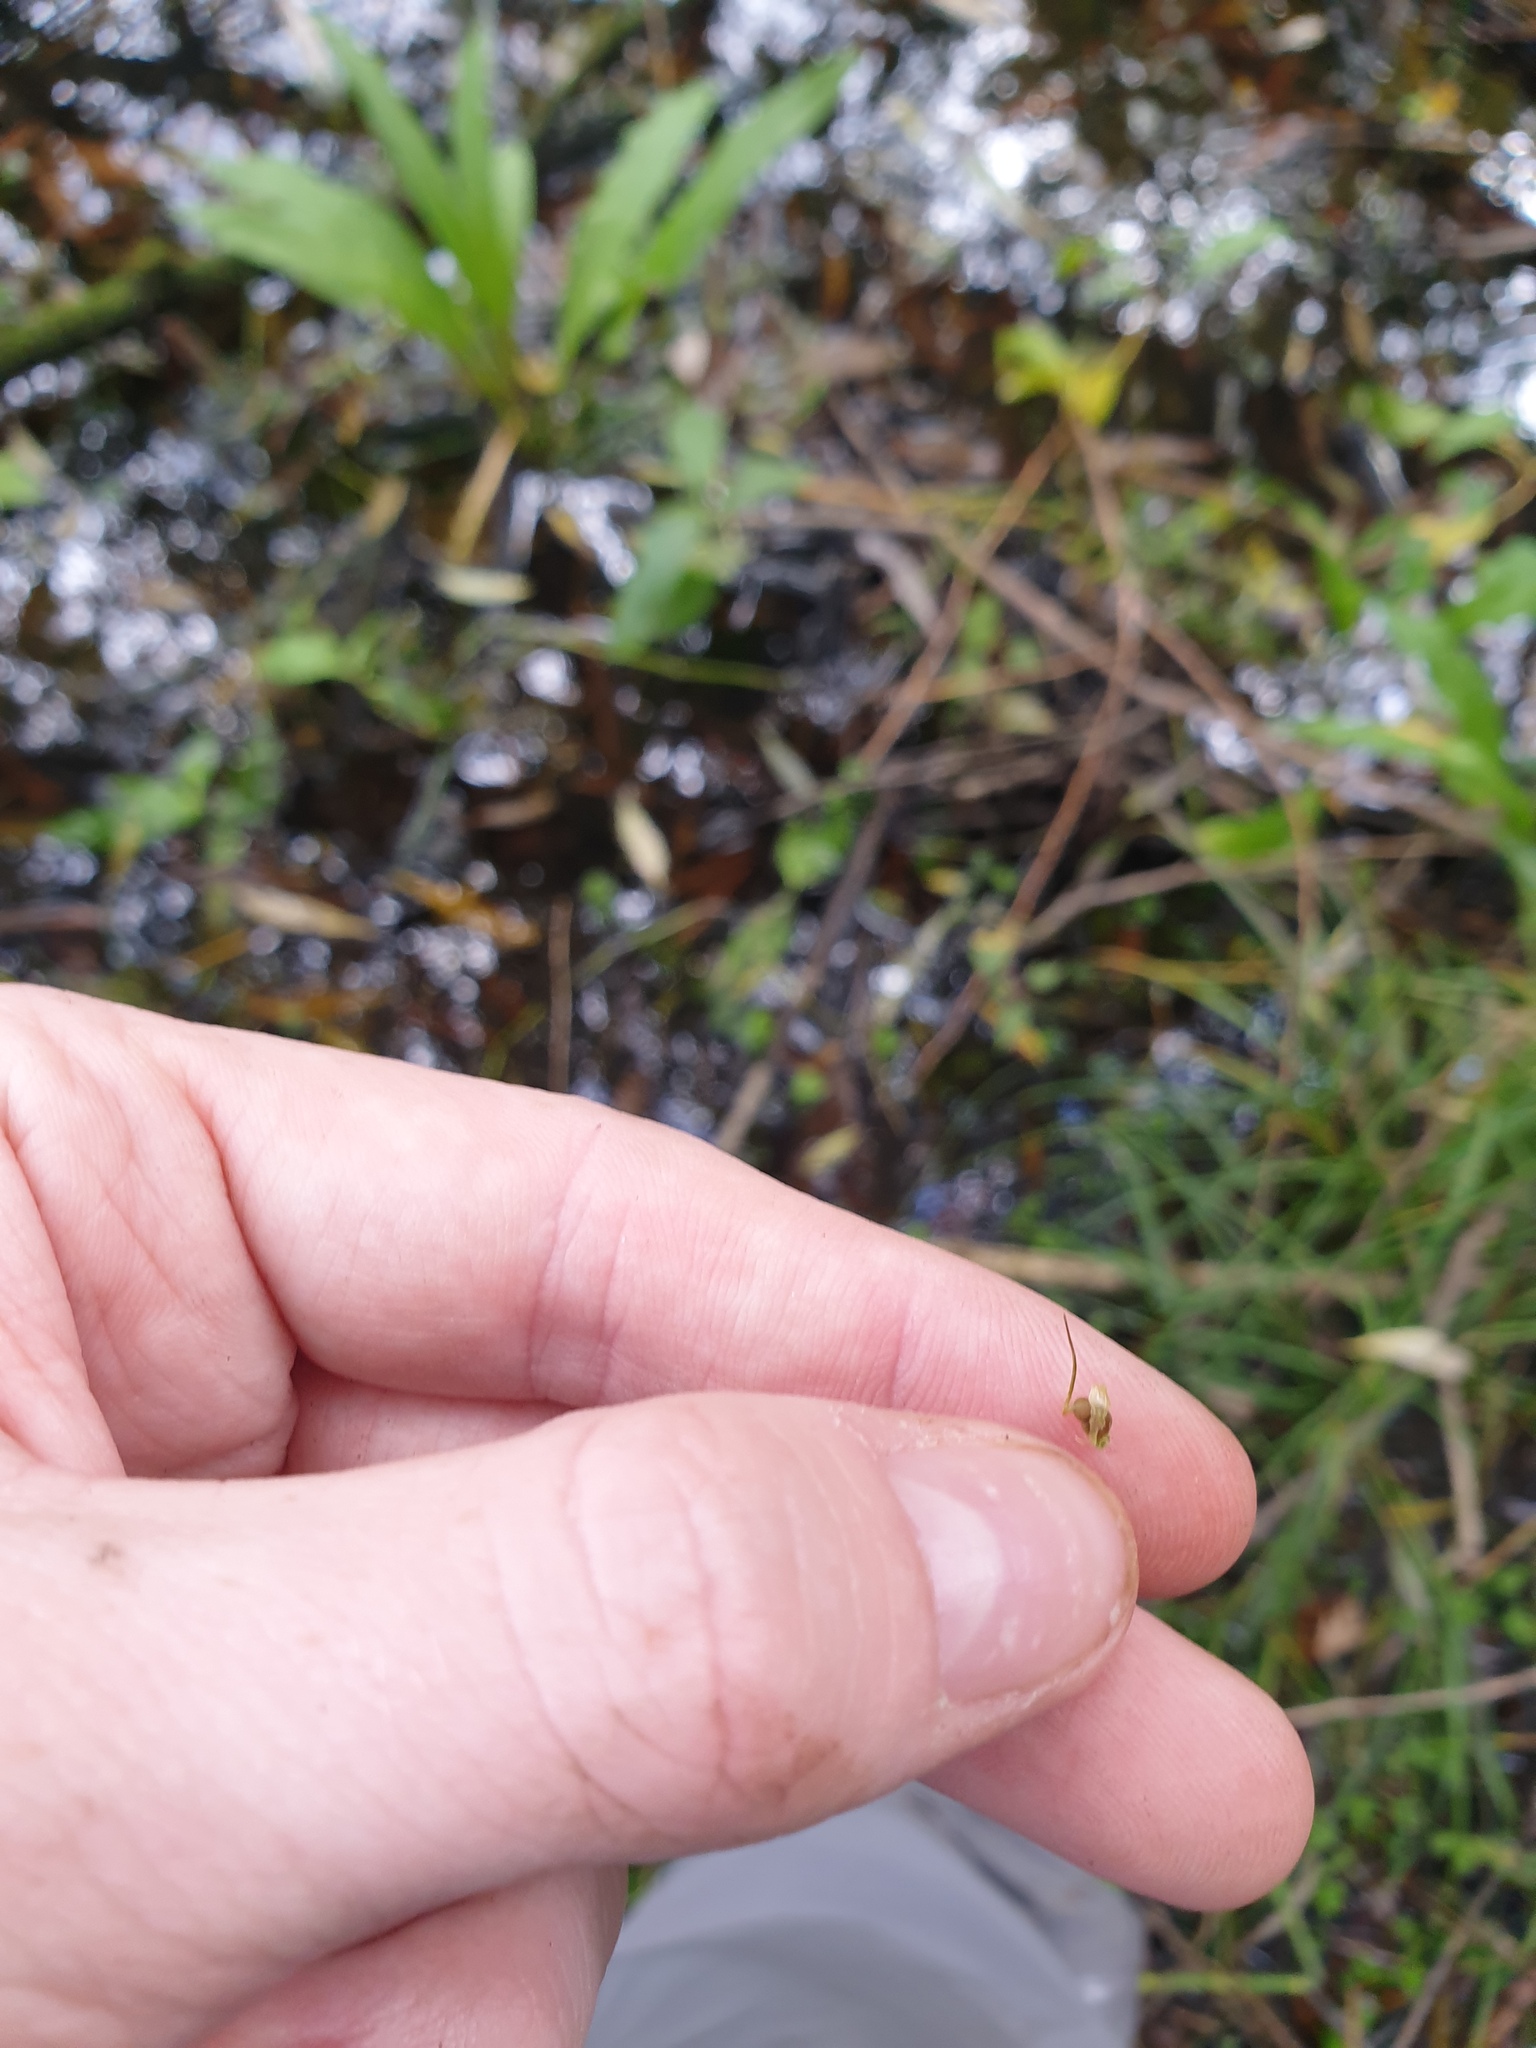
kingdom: Plantae
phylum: Tracheophyta
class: Liliopsida
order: Poales
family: Cyperaceae
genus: Carex
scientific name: Carex tuckermanii
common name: Tuckerman's sedge
